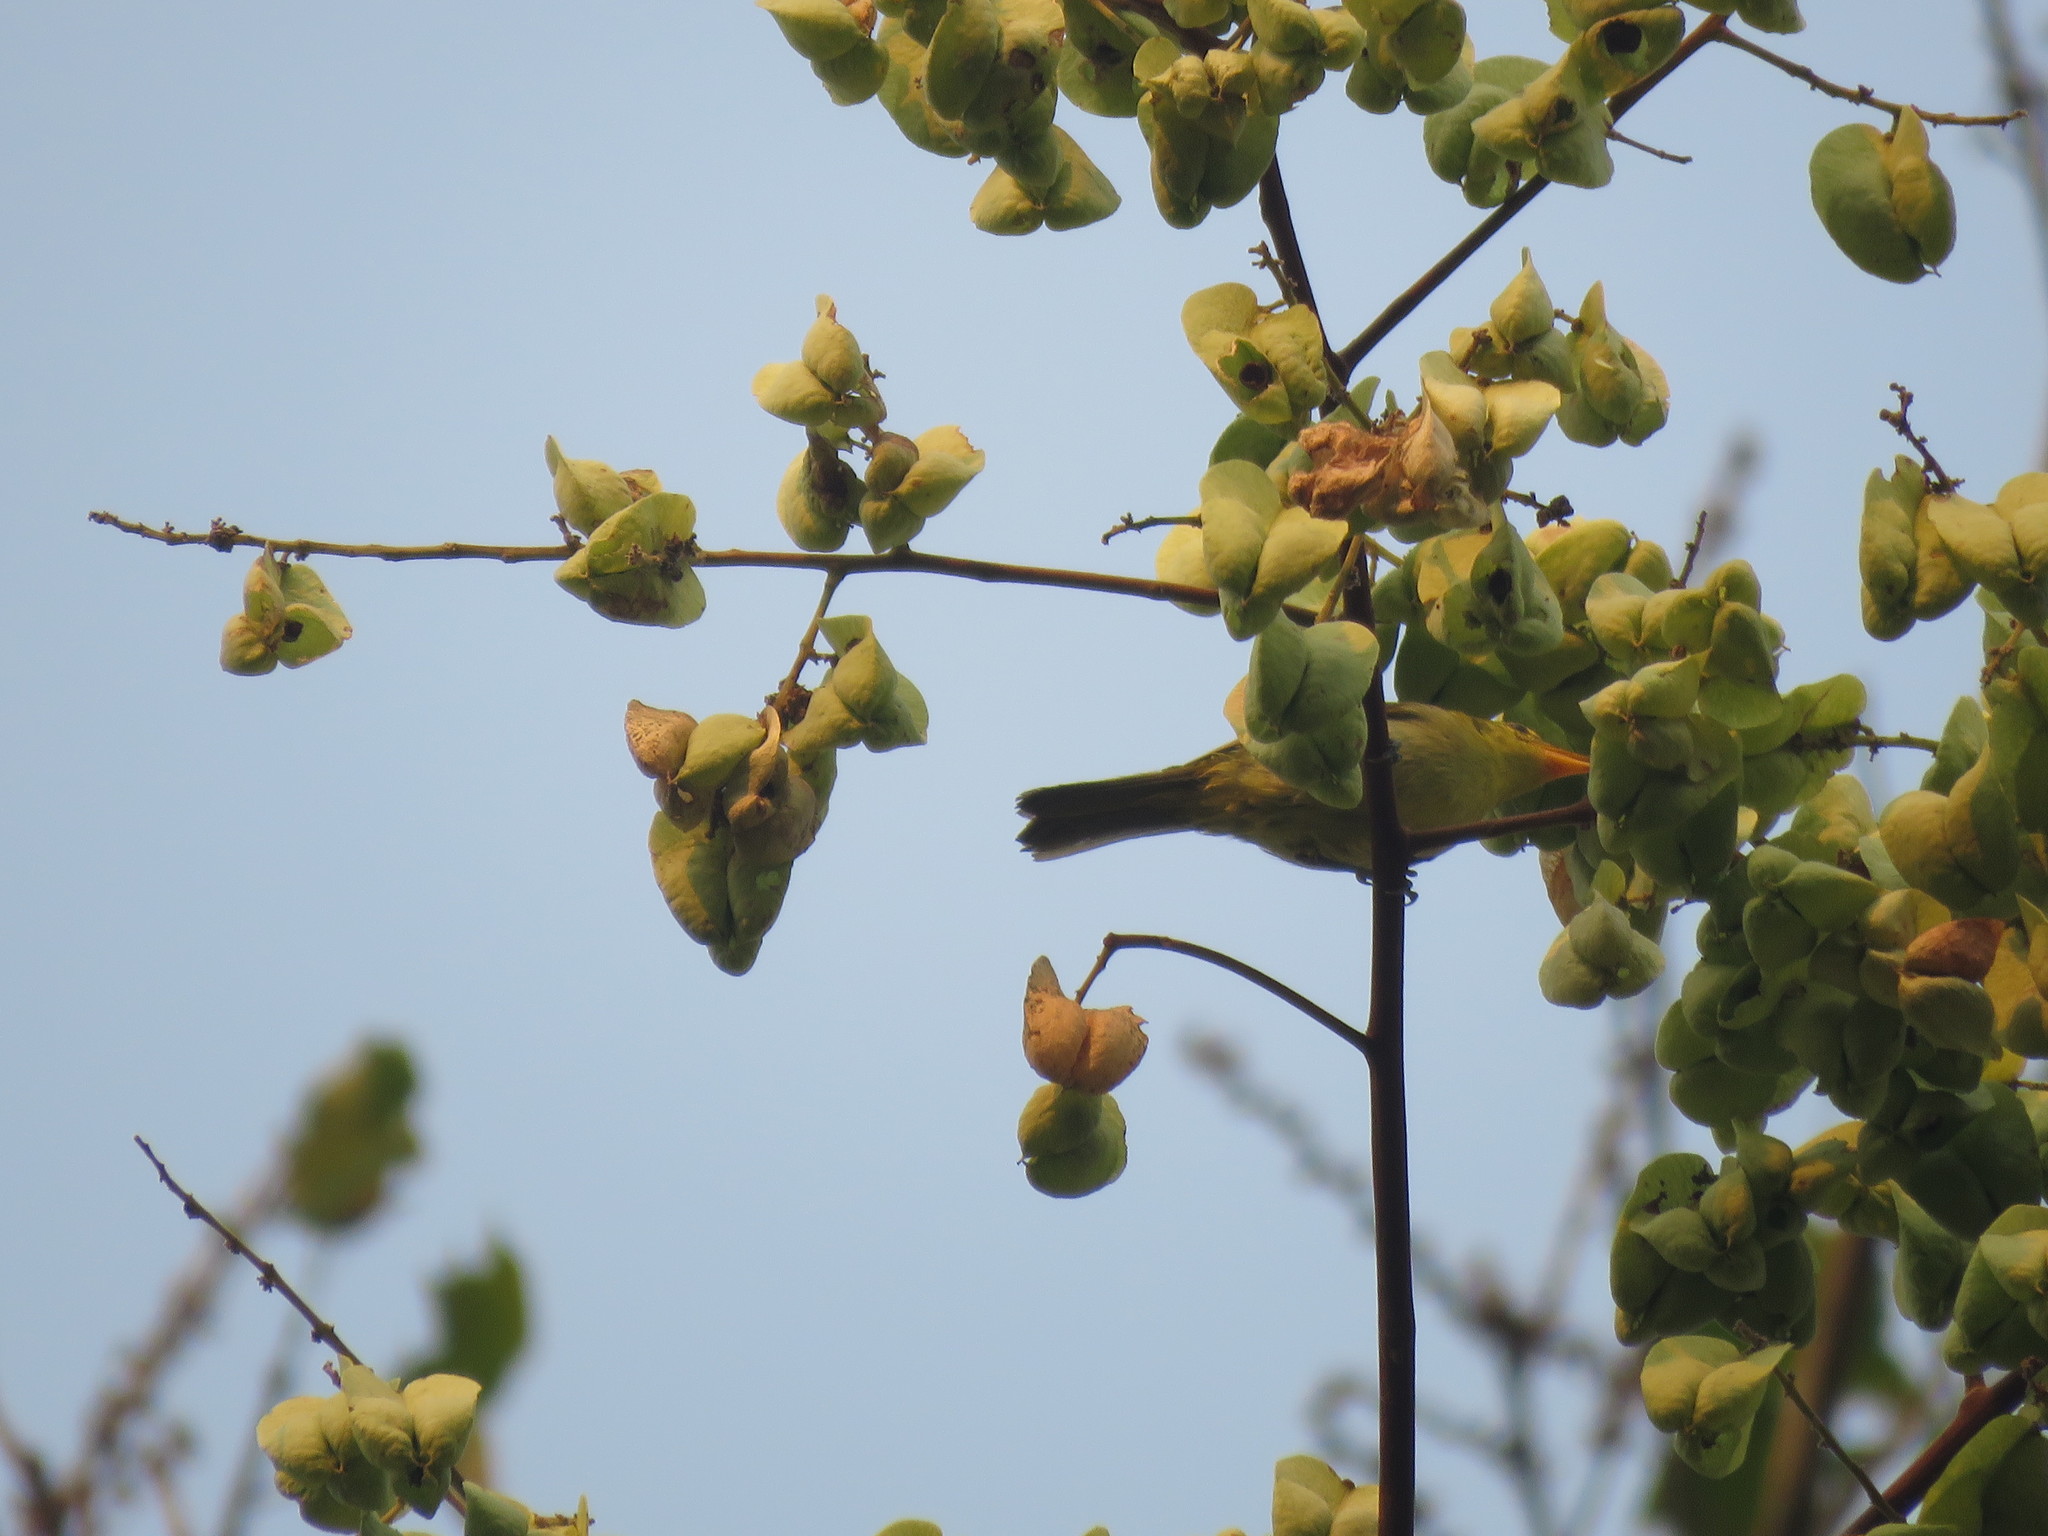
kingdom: Animalia
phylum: Chordata
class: Aves
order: Passeriformes
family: Thraupidae
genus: Hemithraupis
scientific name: Hemithraupis guira
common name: Guira tanager
